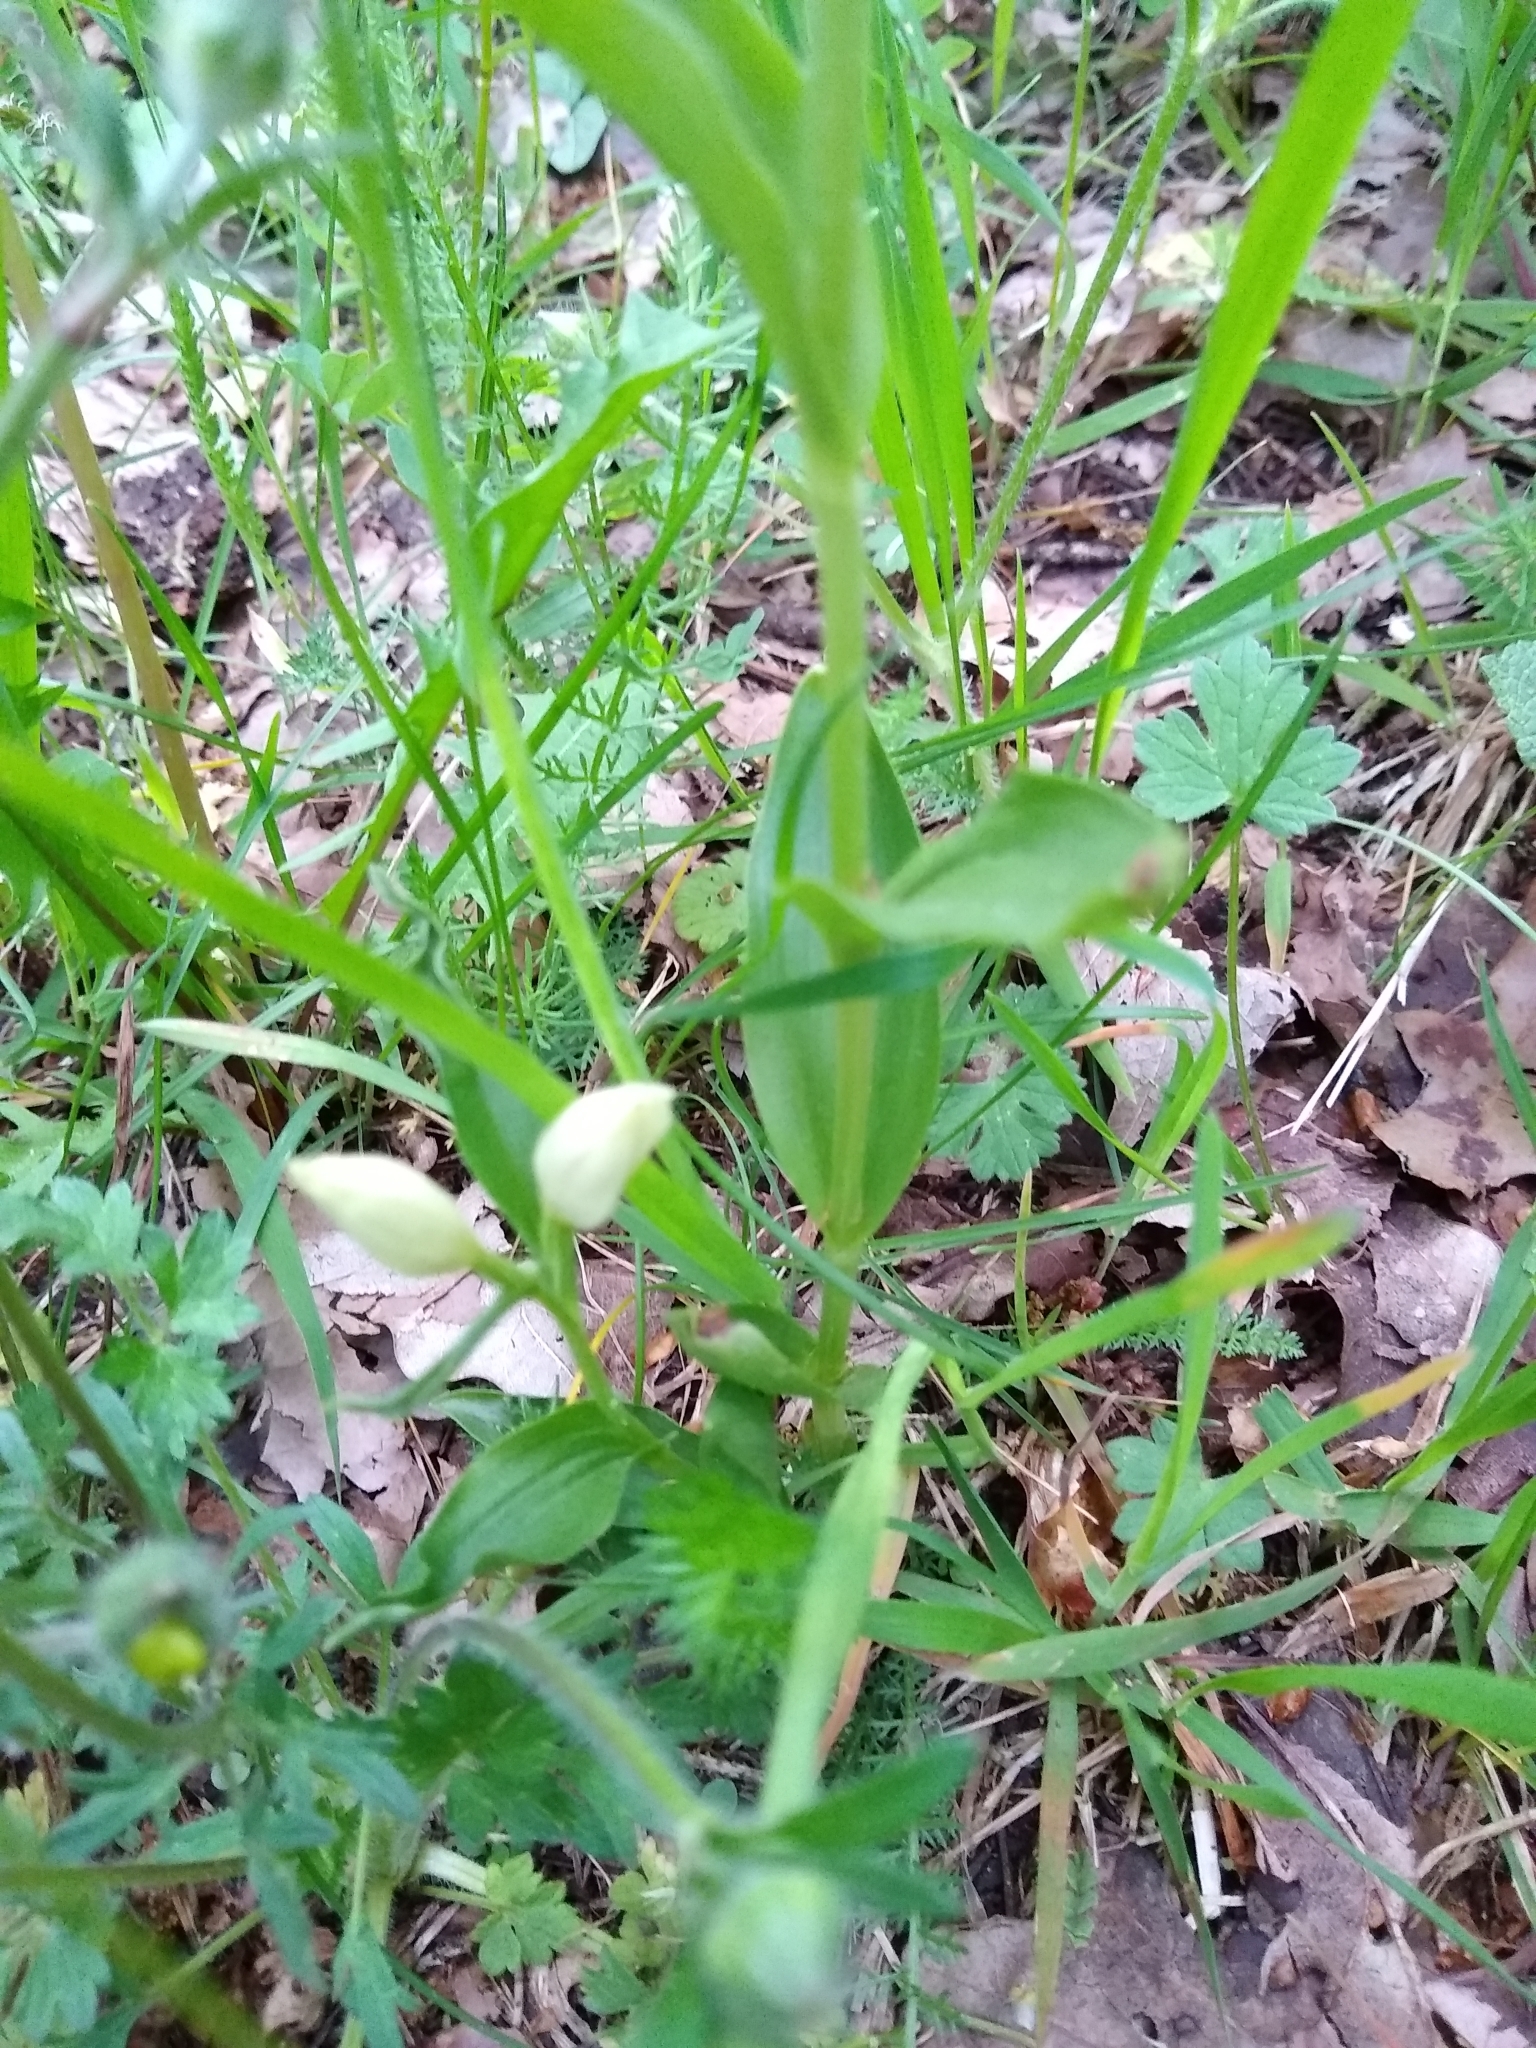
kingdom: Plantae
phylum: Tracheophyta
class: Liliopsida
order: Asparagales
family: Orchidaceae
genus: Cephalanthera
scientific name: Cephalanthera damasonium
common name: White helleborine
